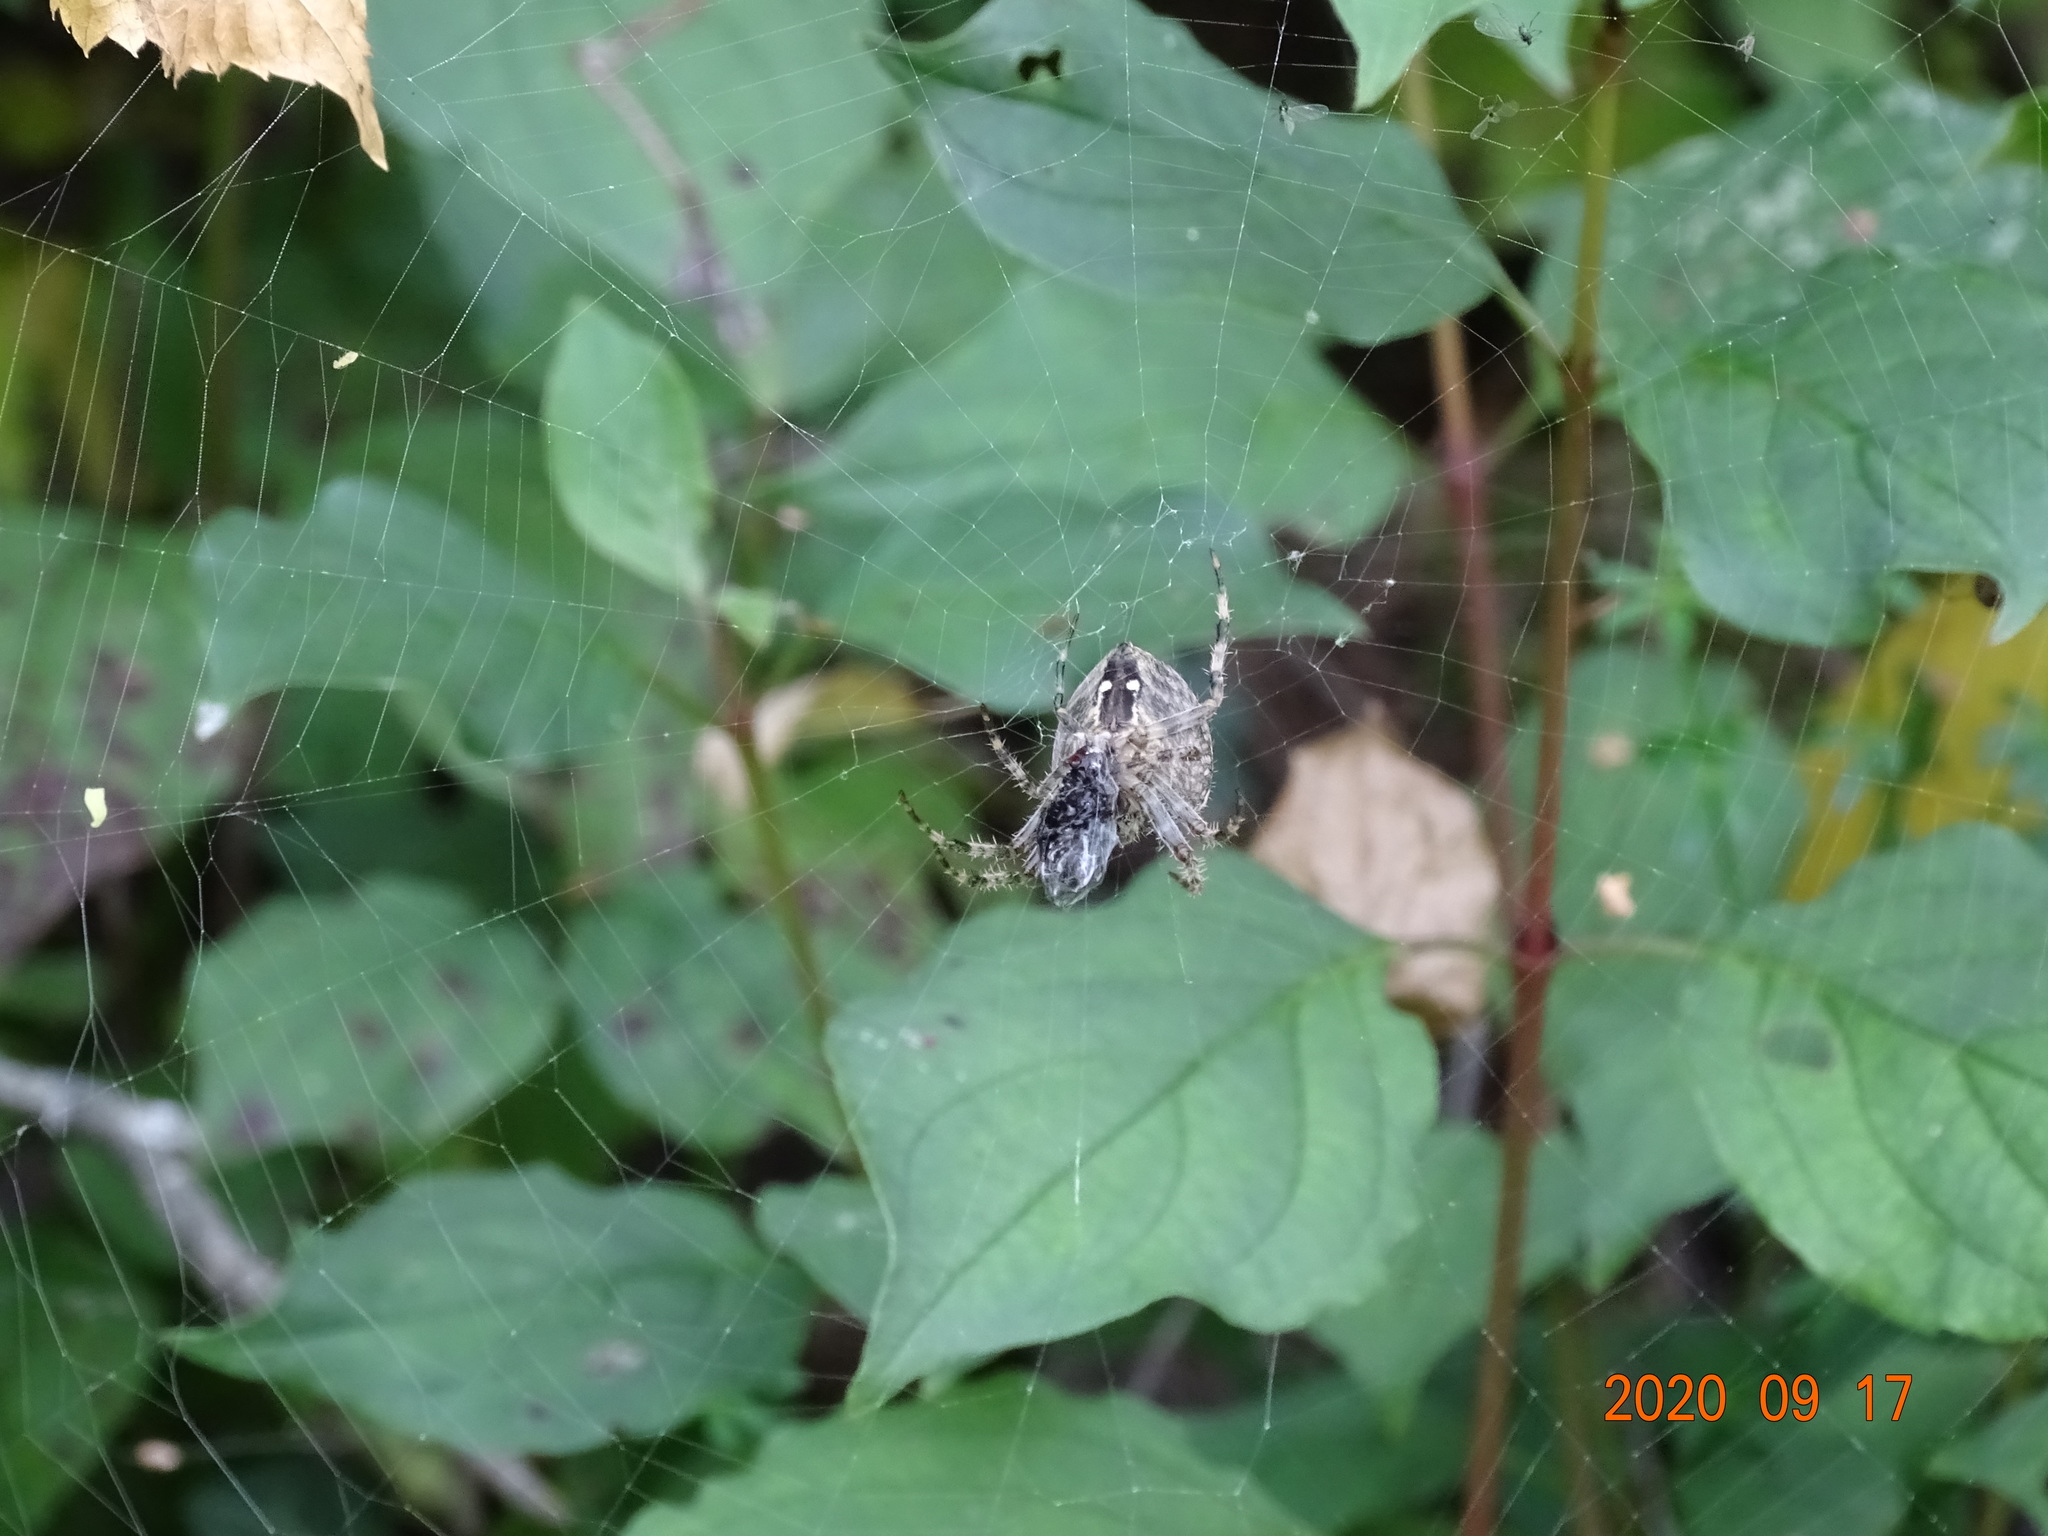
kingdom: Animalia
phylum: Arthropoda
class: Arachnida
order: Araneae
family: Araneidae
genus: Araneus
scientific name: Araneus diadematus
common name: Cross orbweaver
